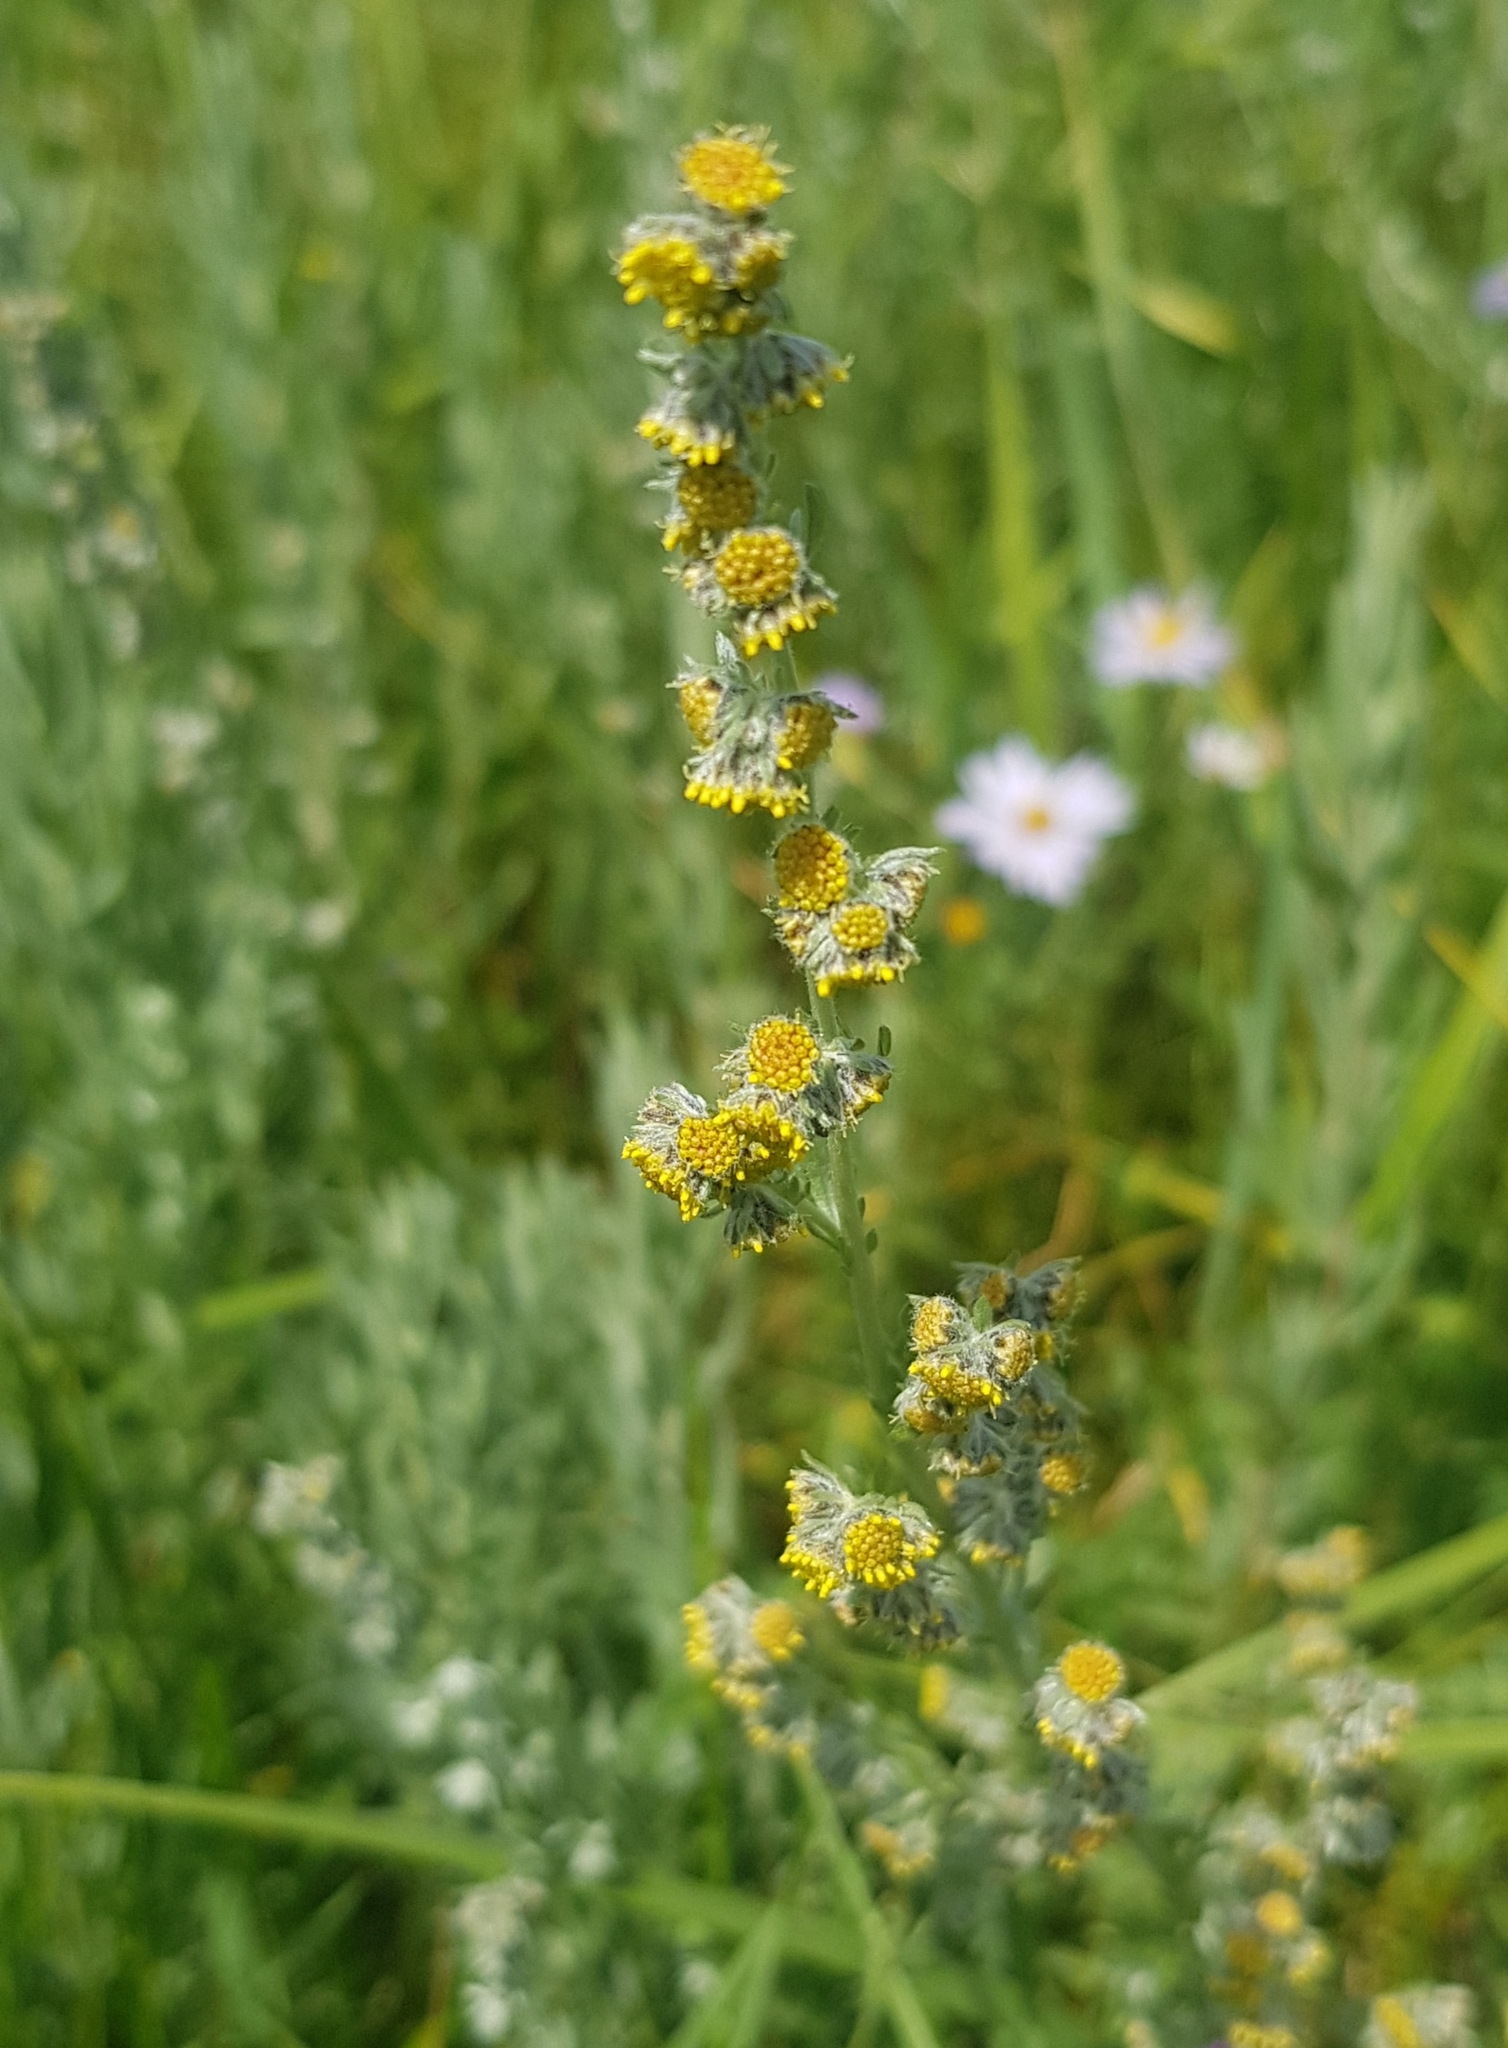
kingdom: Plantae
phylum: Tracheophyta
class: Magnoliopsida
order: Asterales
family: Asteraceae
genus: Artemisia
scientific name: Artemisia frigida
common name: Prairie sagewort
